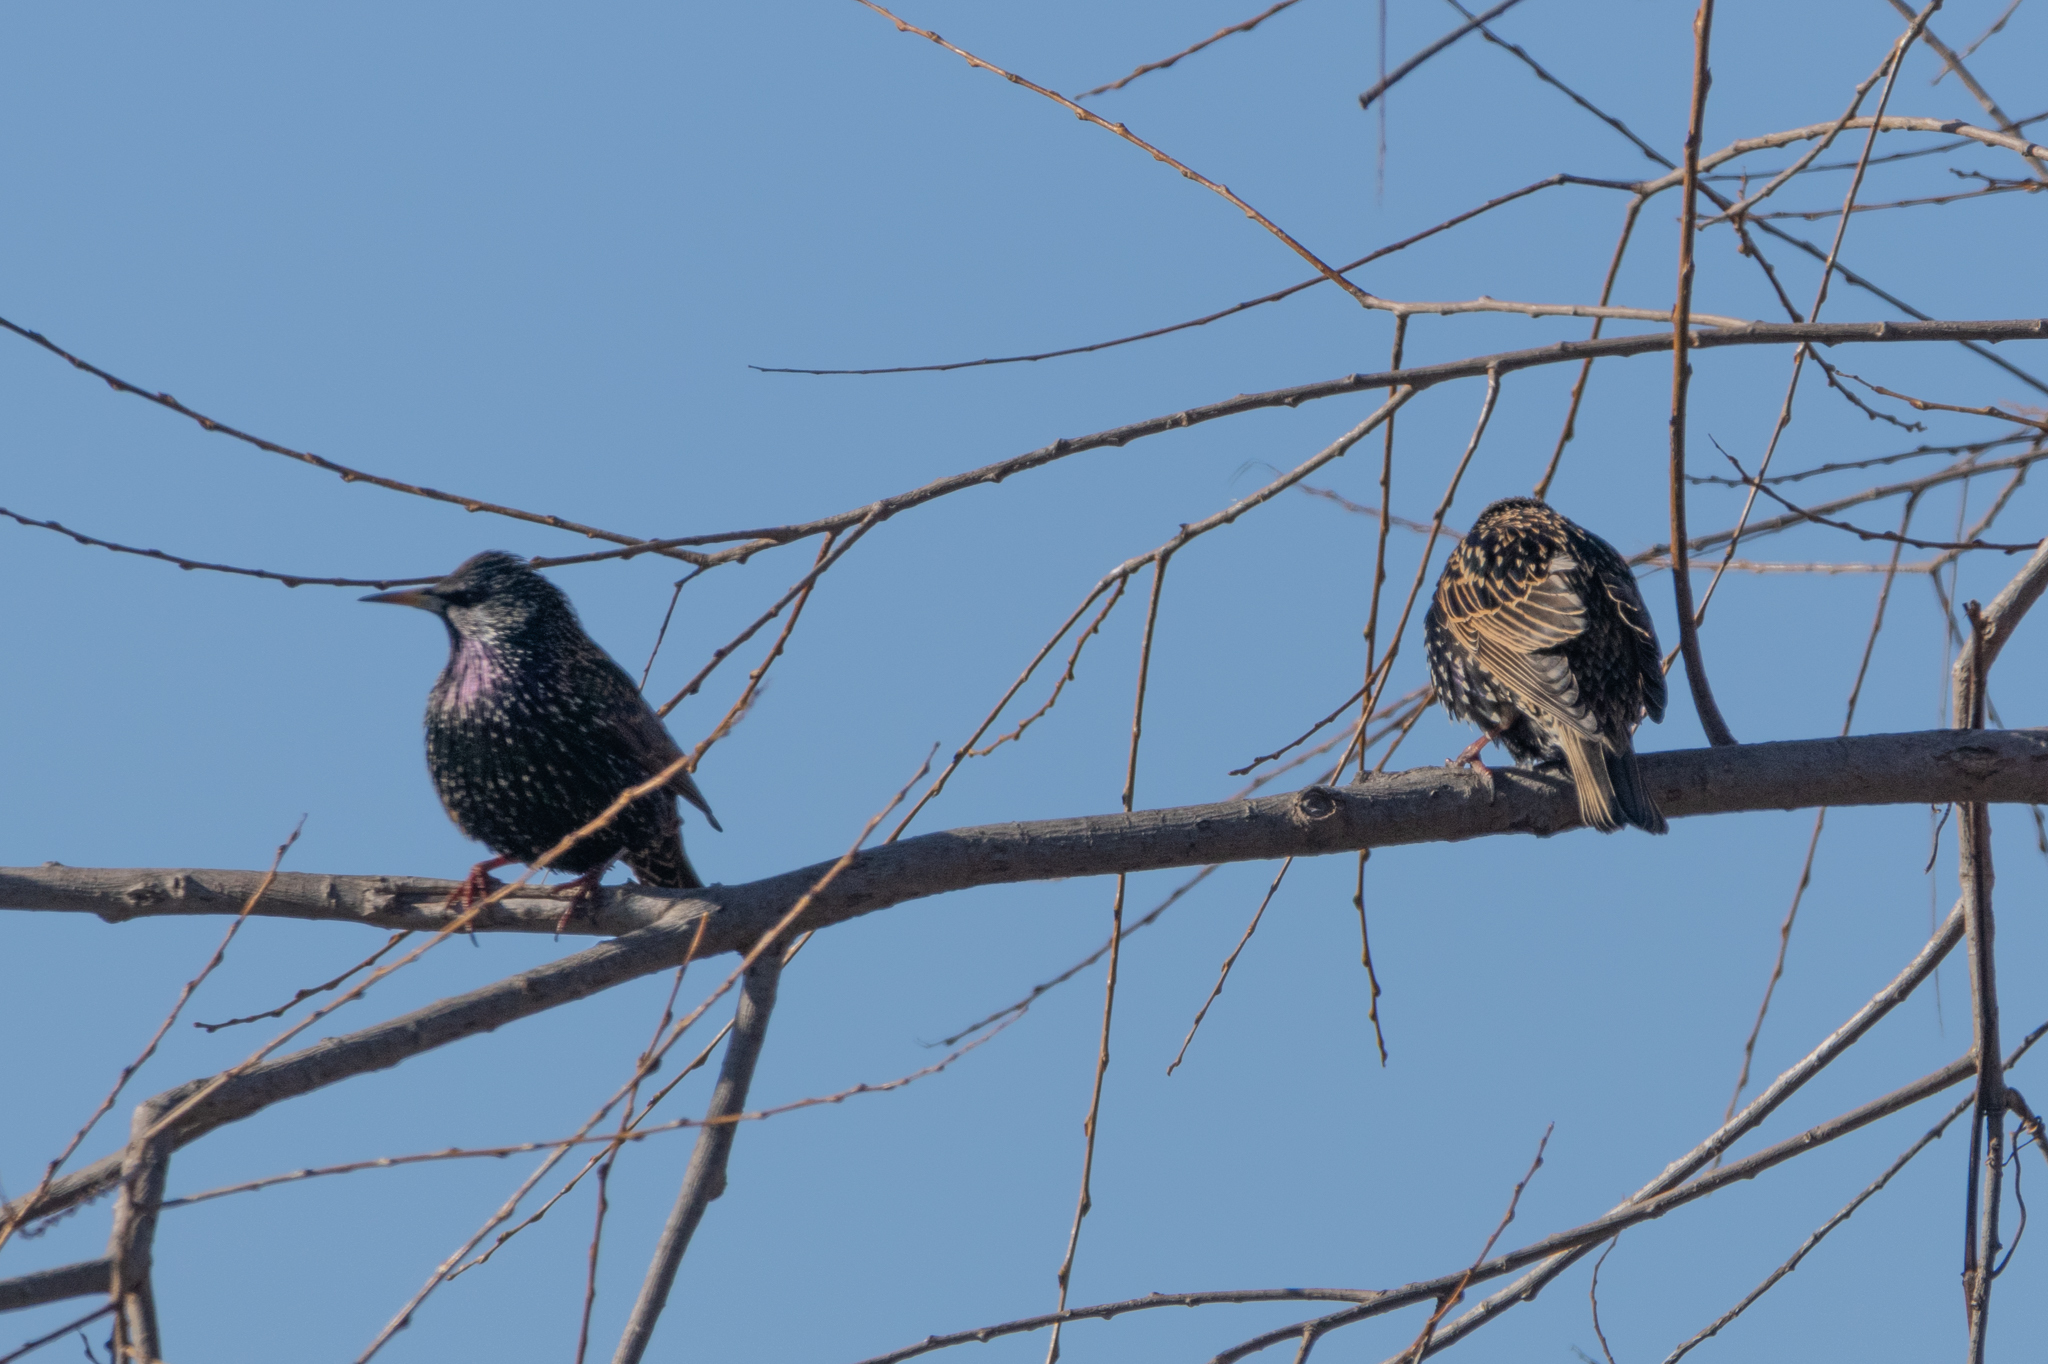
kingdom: Animalia
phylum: Chordata
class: Aves
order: Passeriformes
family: Sturnidae
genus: Sturnus
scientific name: Sturnus vulgaris
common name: Common starling
